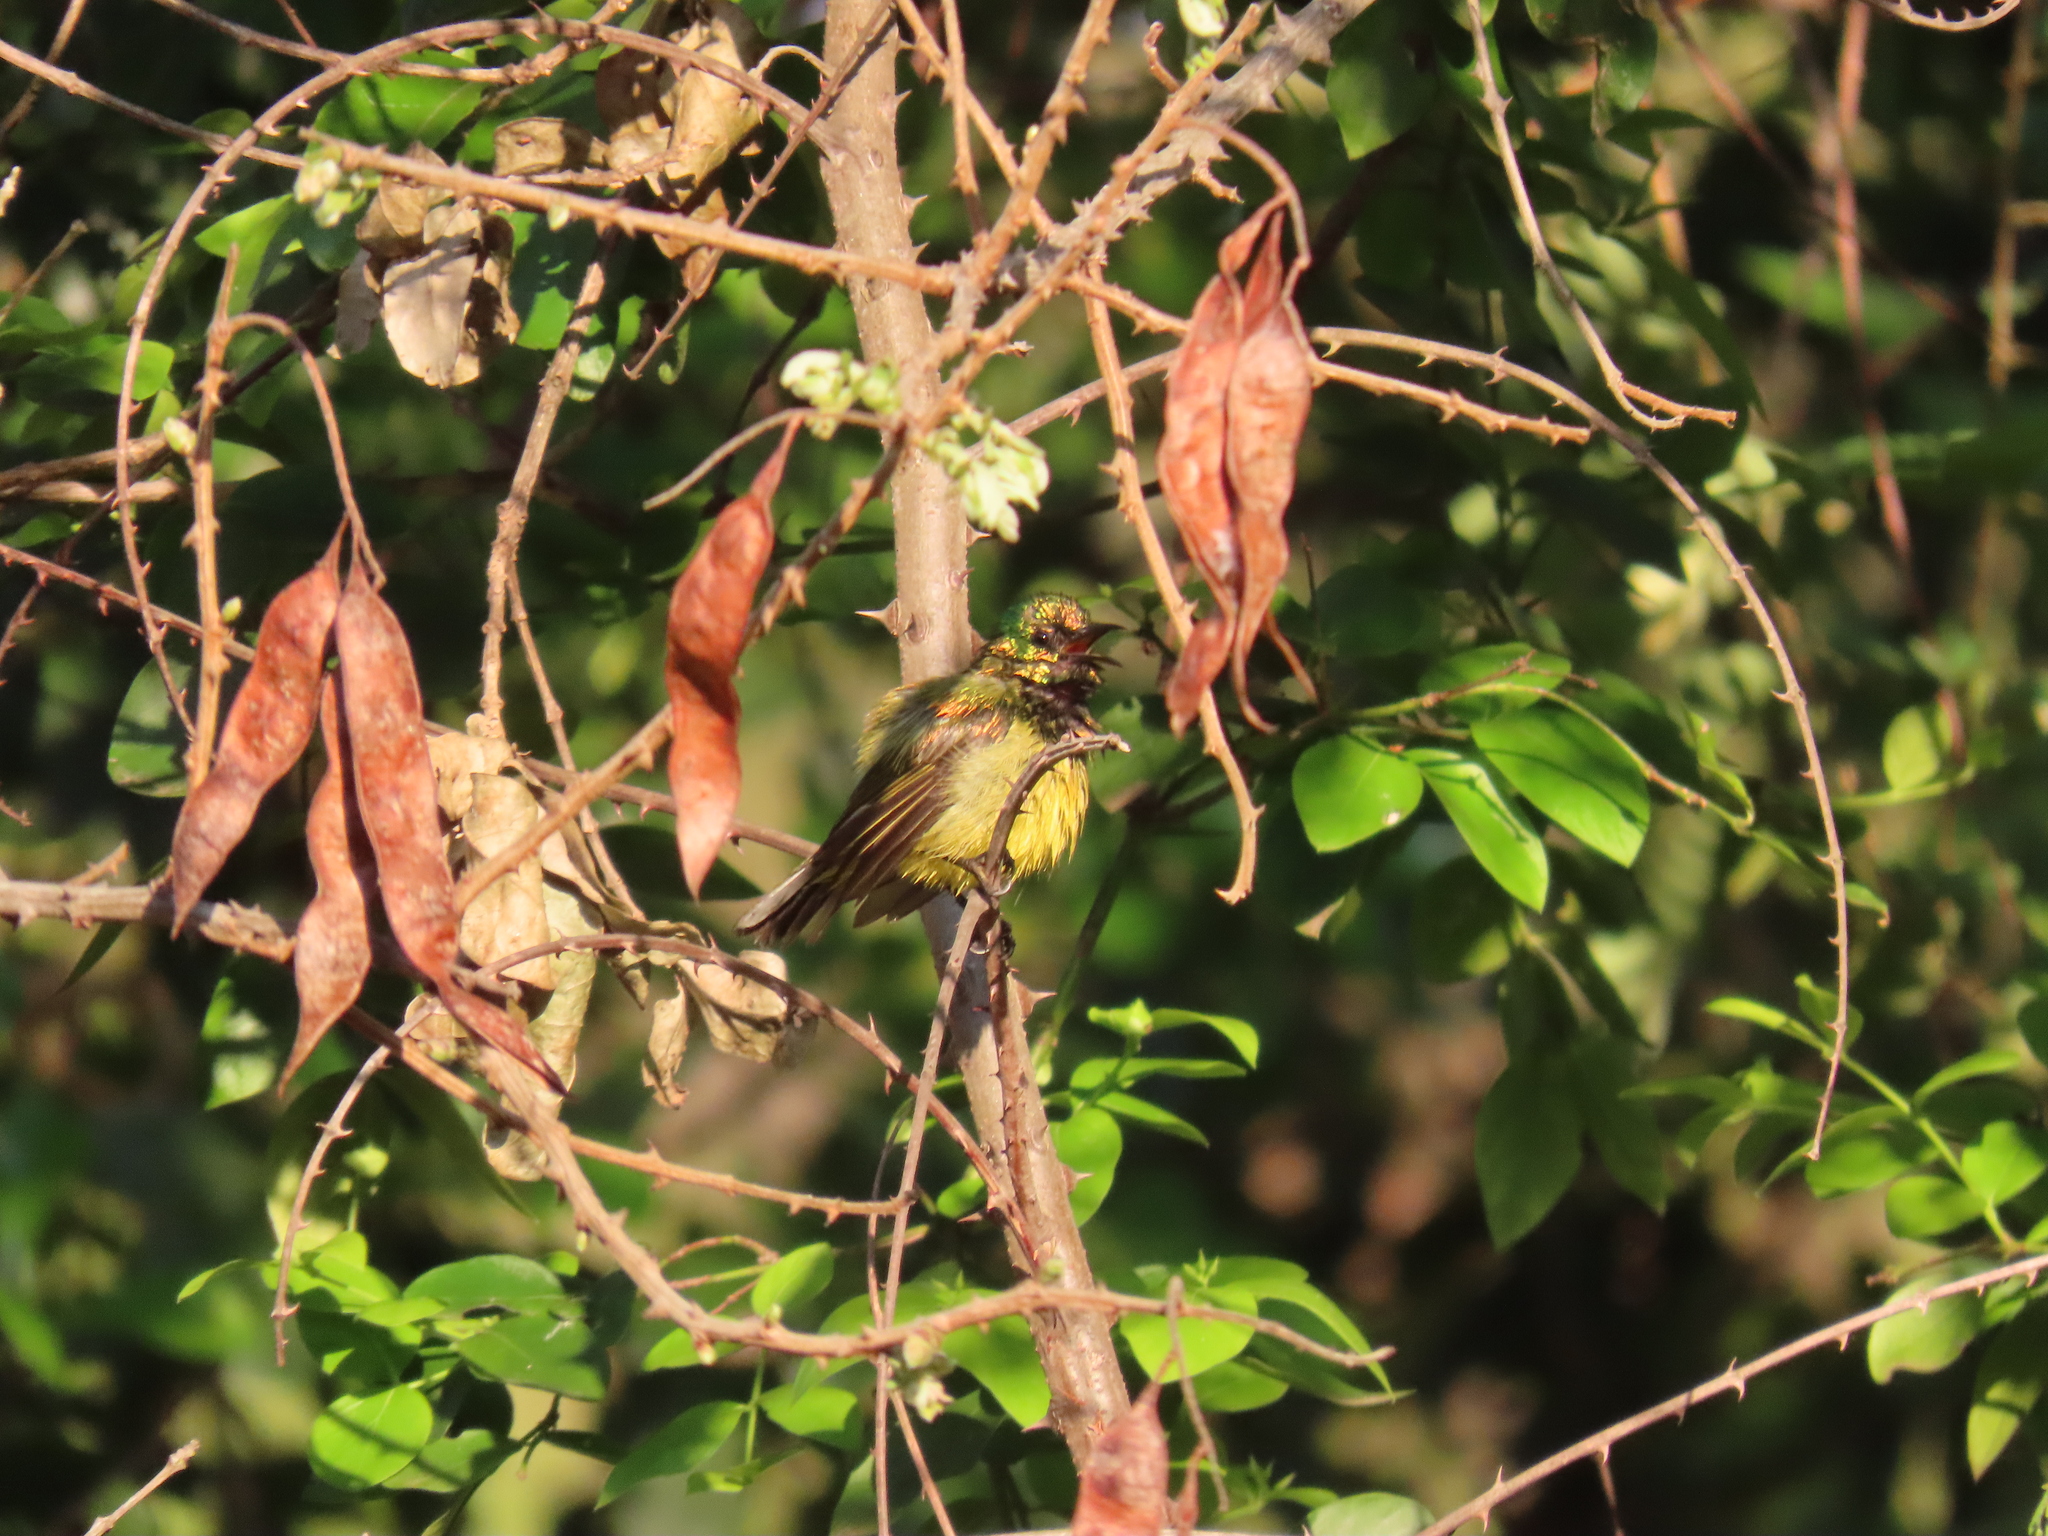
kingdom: Animalia
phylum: Chordata
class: Aves
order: Passeriformes
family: Nectariniidae
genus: Hedydipna
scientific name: Hedydipna collaris
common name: Collared sunbird
